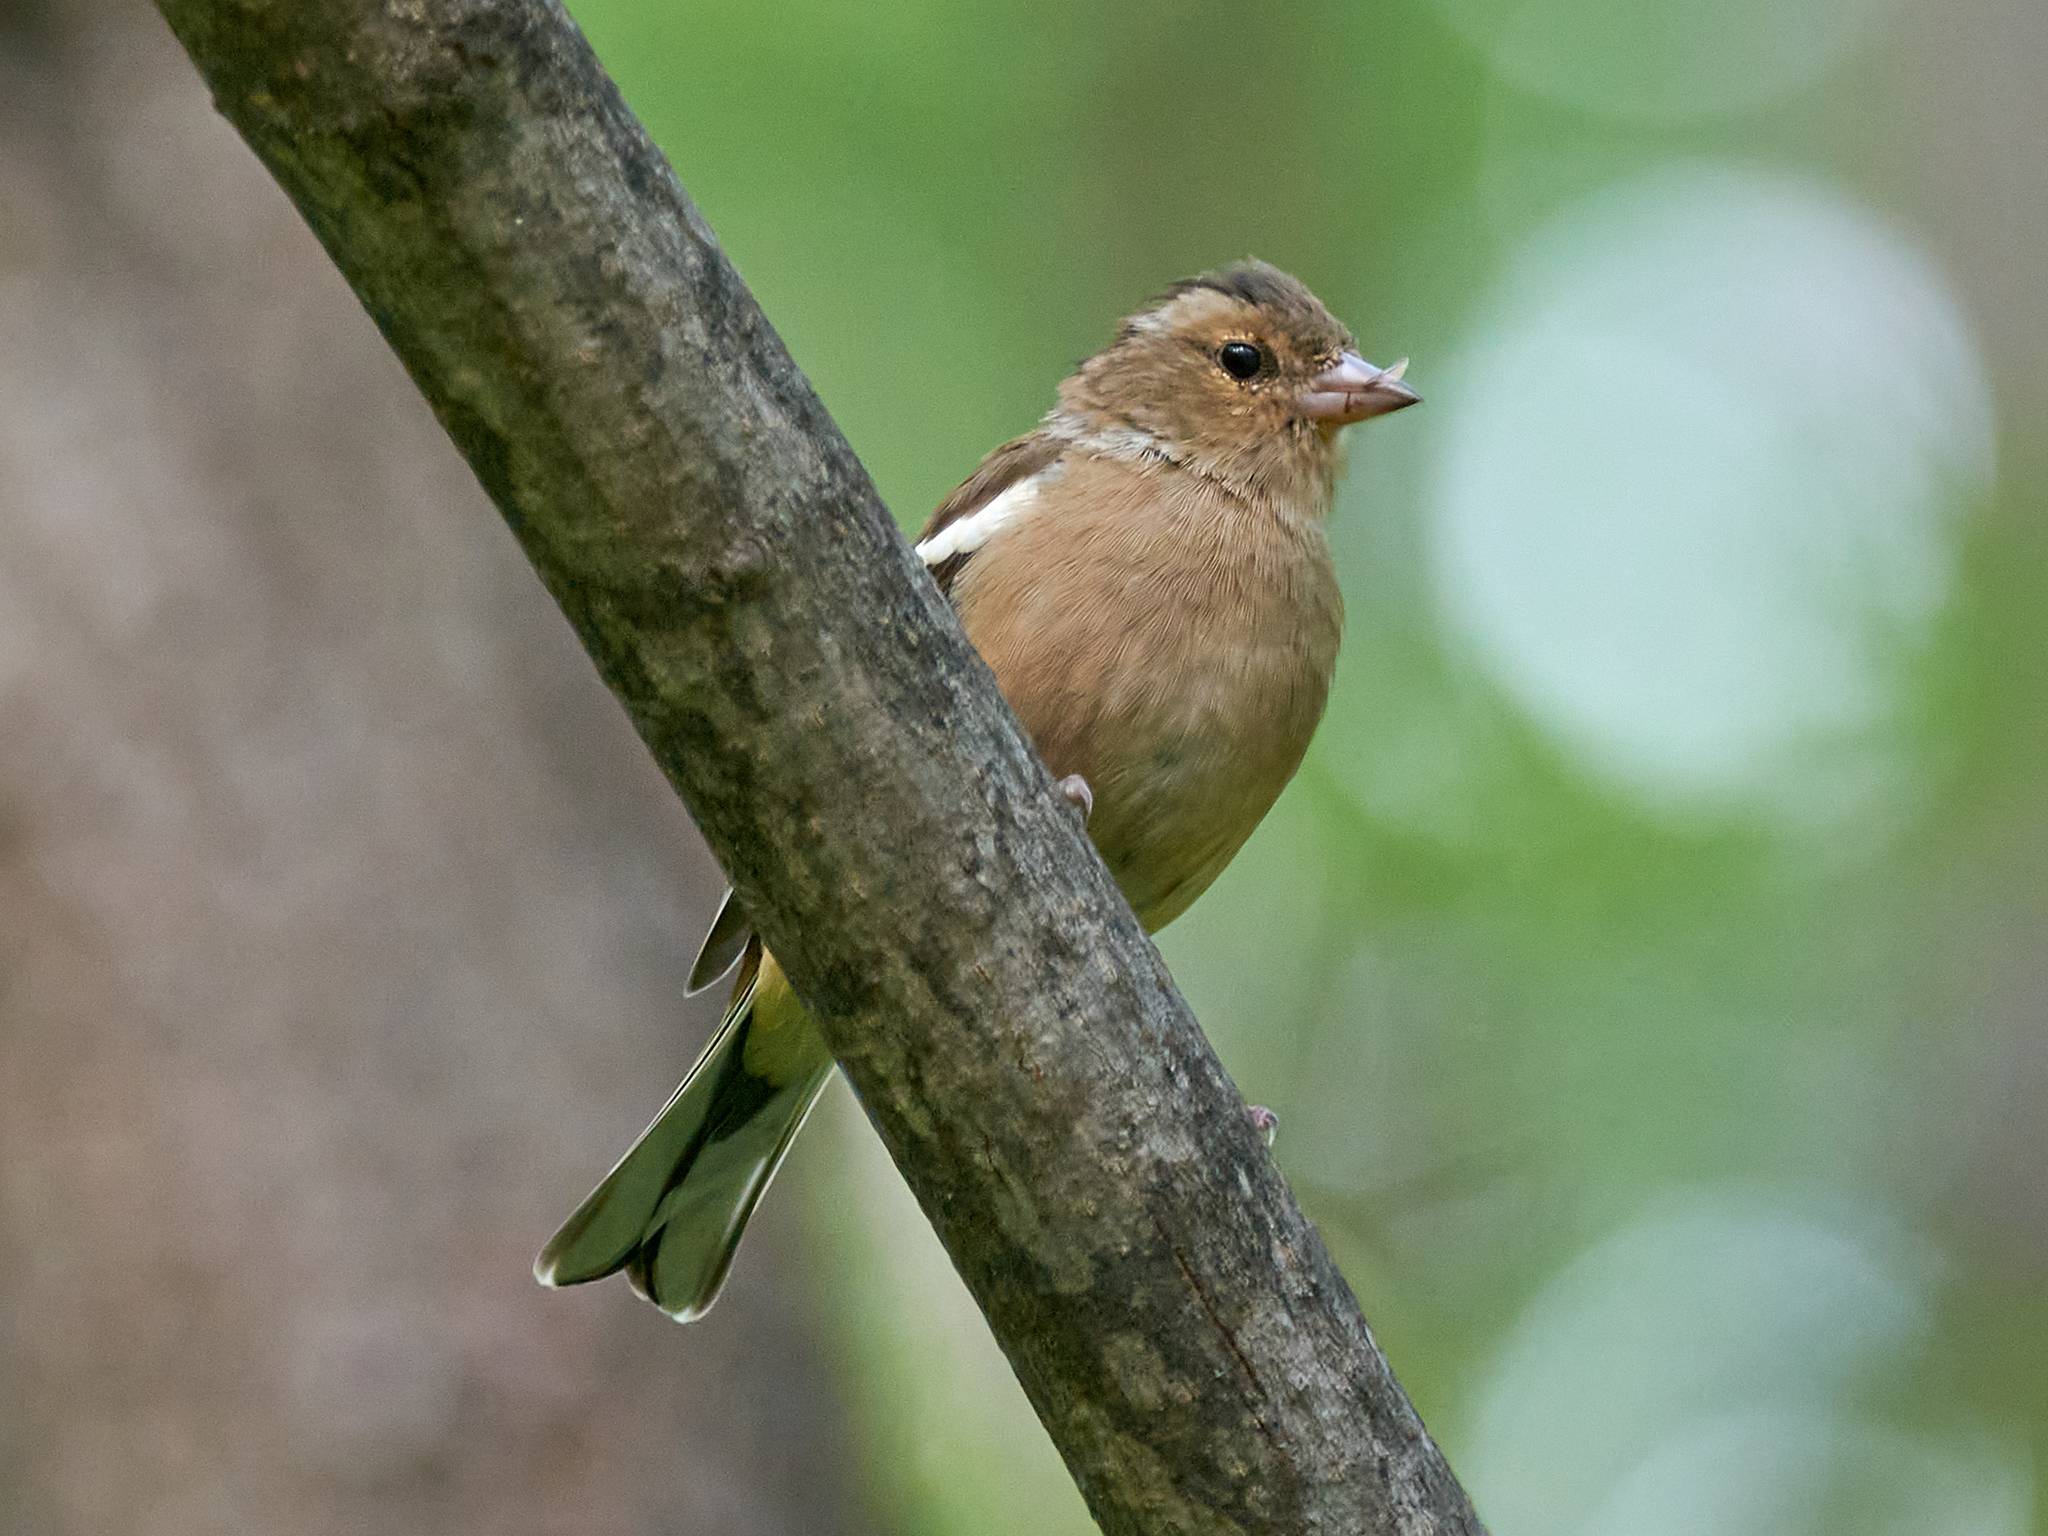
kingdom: Animalia
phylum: Chordata
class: Aves
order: Passeriformes
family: Fringillidae
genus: Fringilla
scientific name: Fringilla coelebs
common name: Common chaffinch
